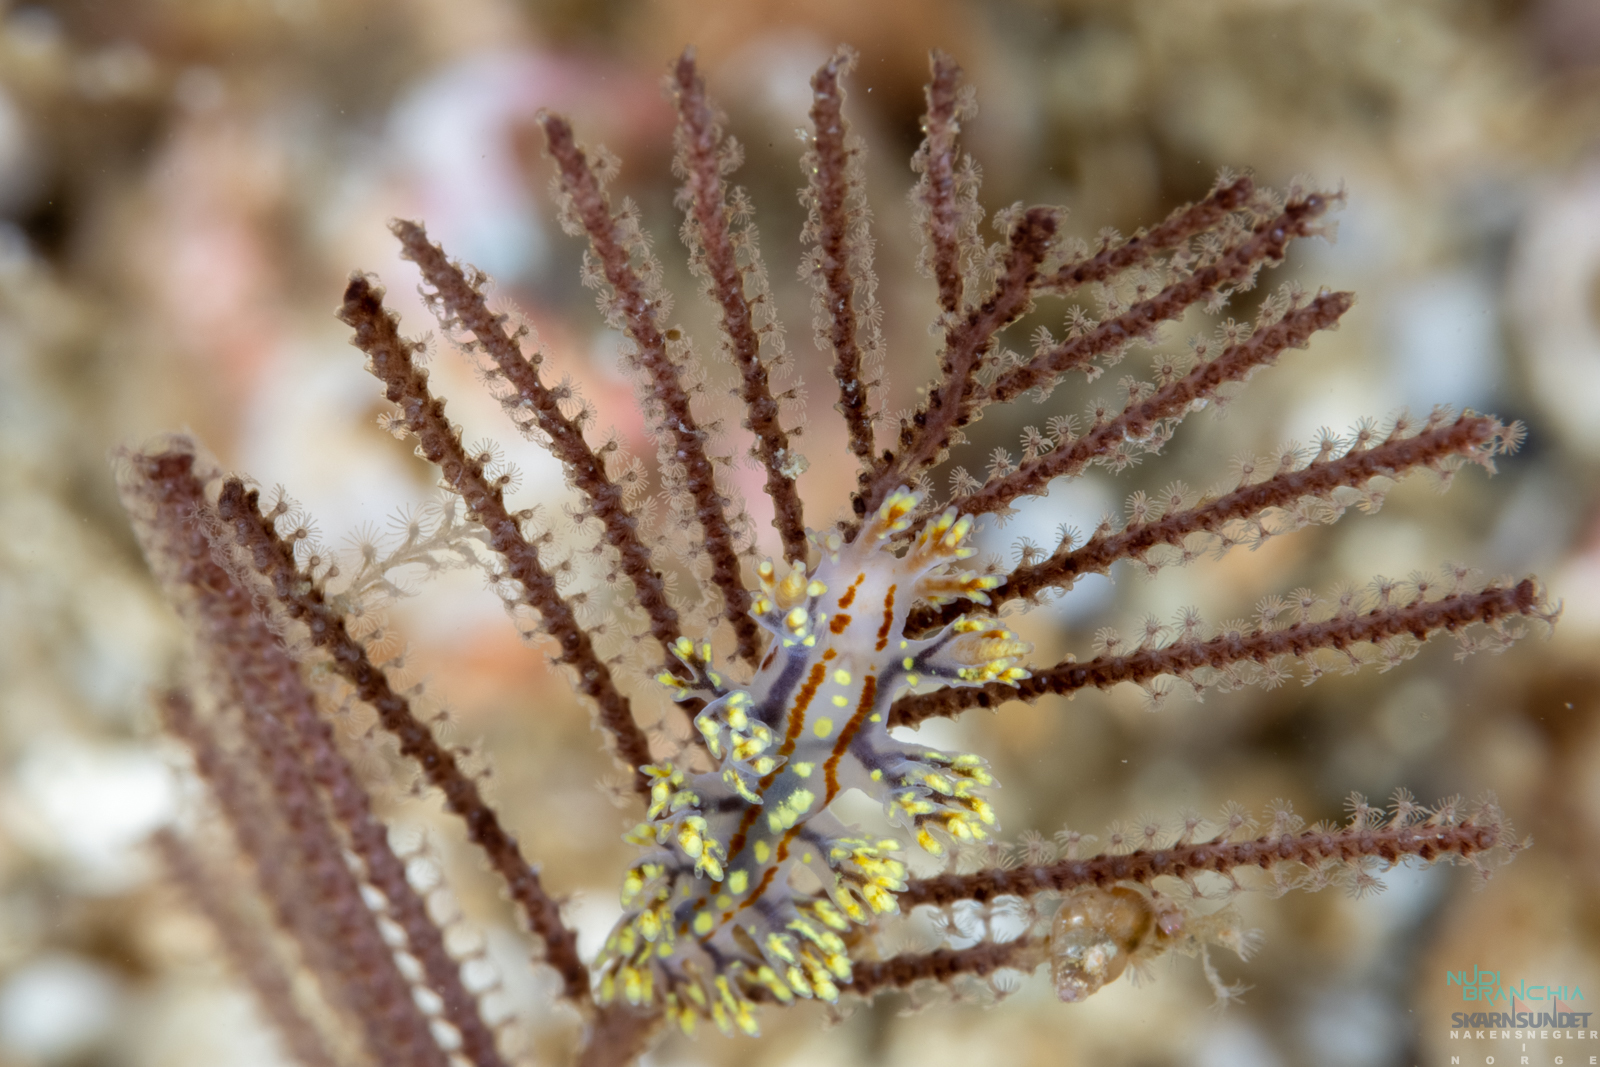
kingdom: Animalia
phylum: Mollusca
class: Gastropoda
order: Nudibranchia
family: Dendronotidae
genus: Dendronotus
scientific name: Dendronotus yrjargul
